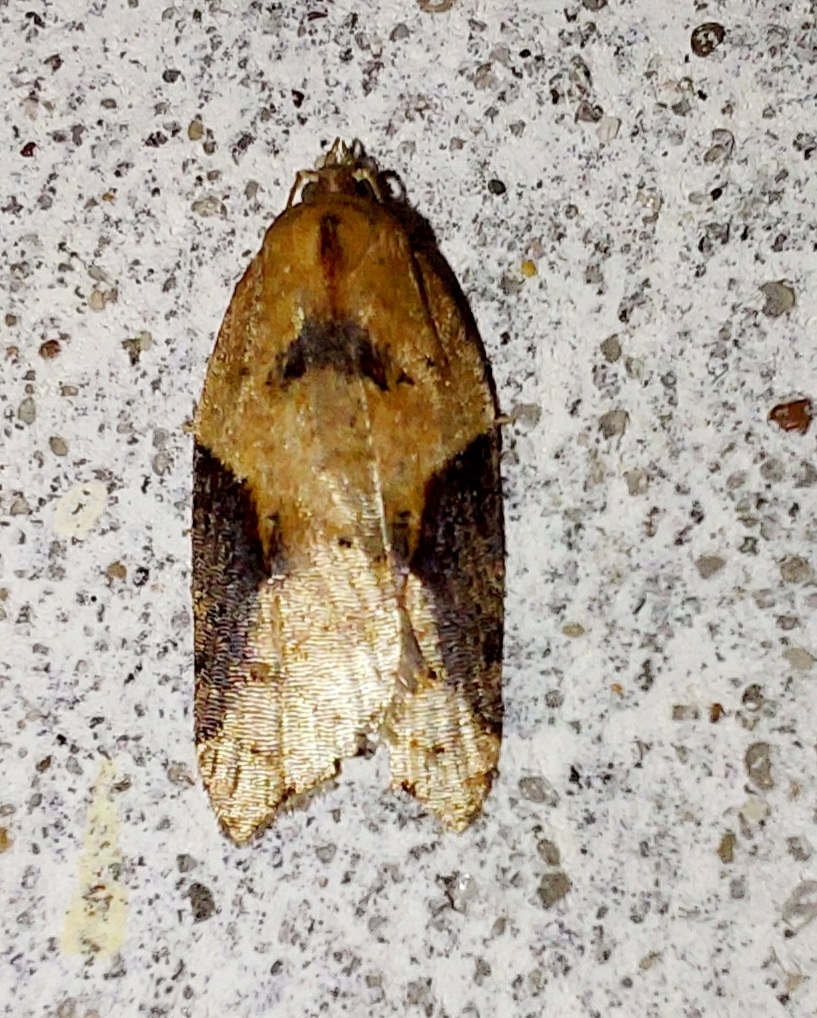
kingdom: Animalia
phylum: Arthropoda
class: Insecta
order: Lepidoptera
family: Tortricidae
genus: Acleris
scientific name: Acleris laterana
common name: Dark-triangle button
